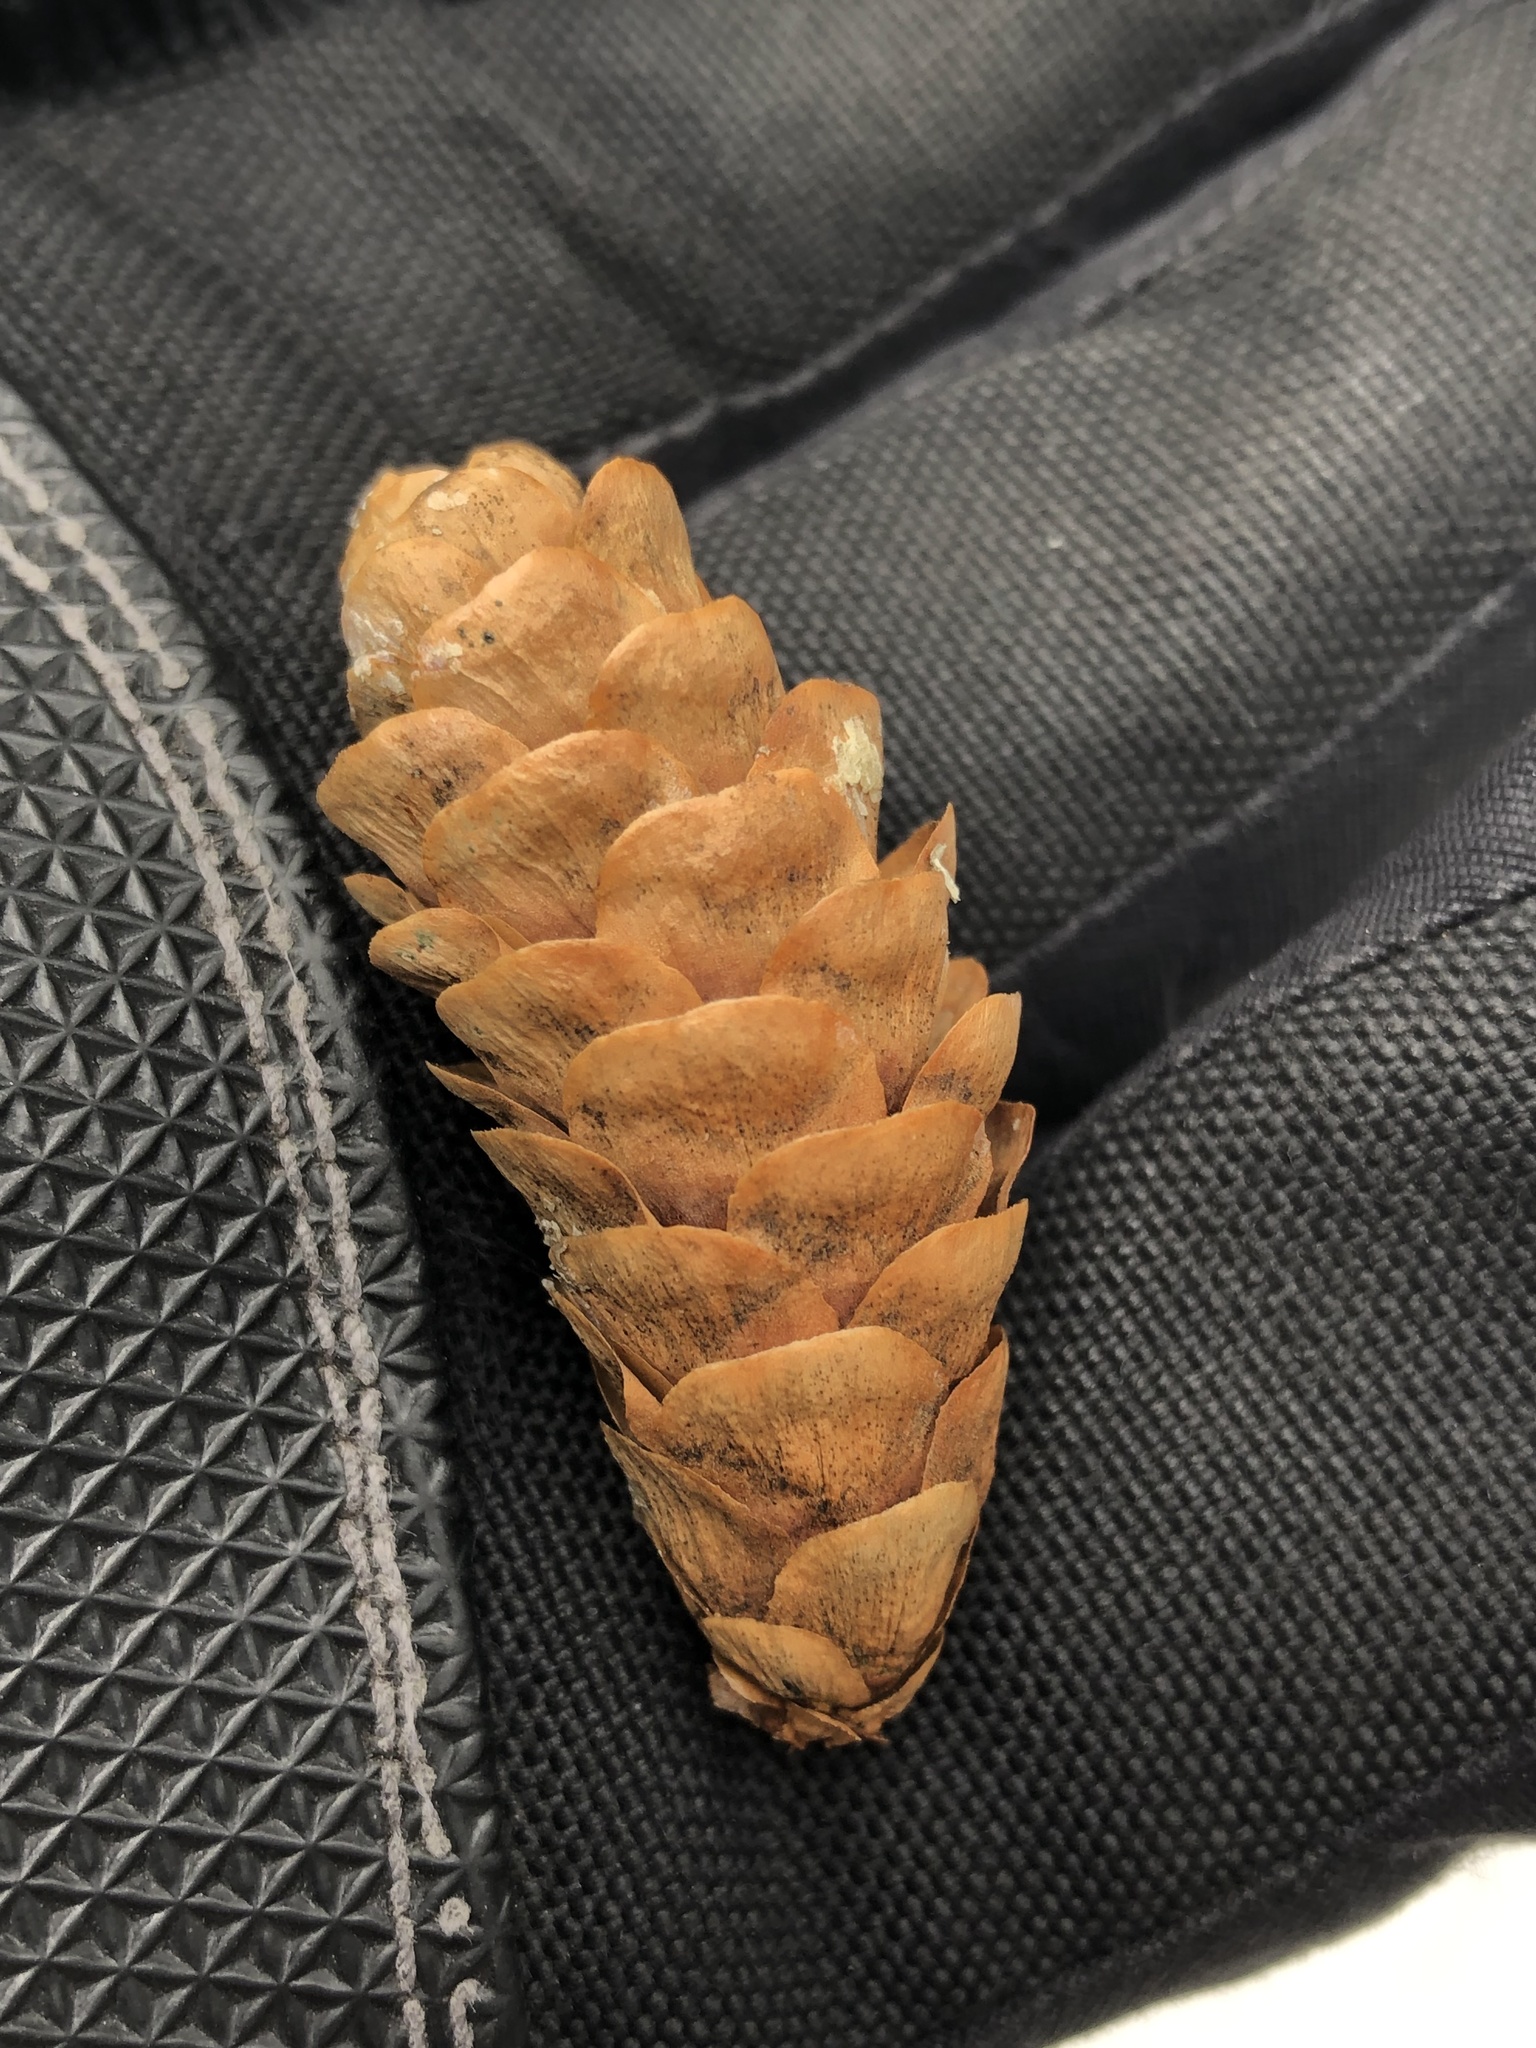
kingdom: Plantae
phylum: Tracheophyta
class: Pinopsida
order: Pinales
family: Pinaceae
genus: Picea
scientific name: Picea glauca
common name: White spruce
